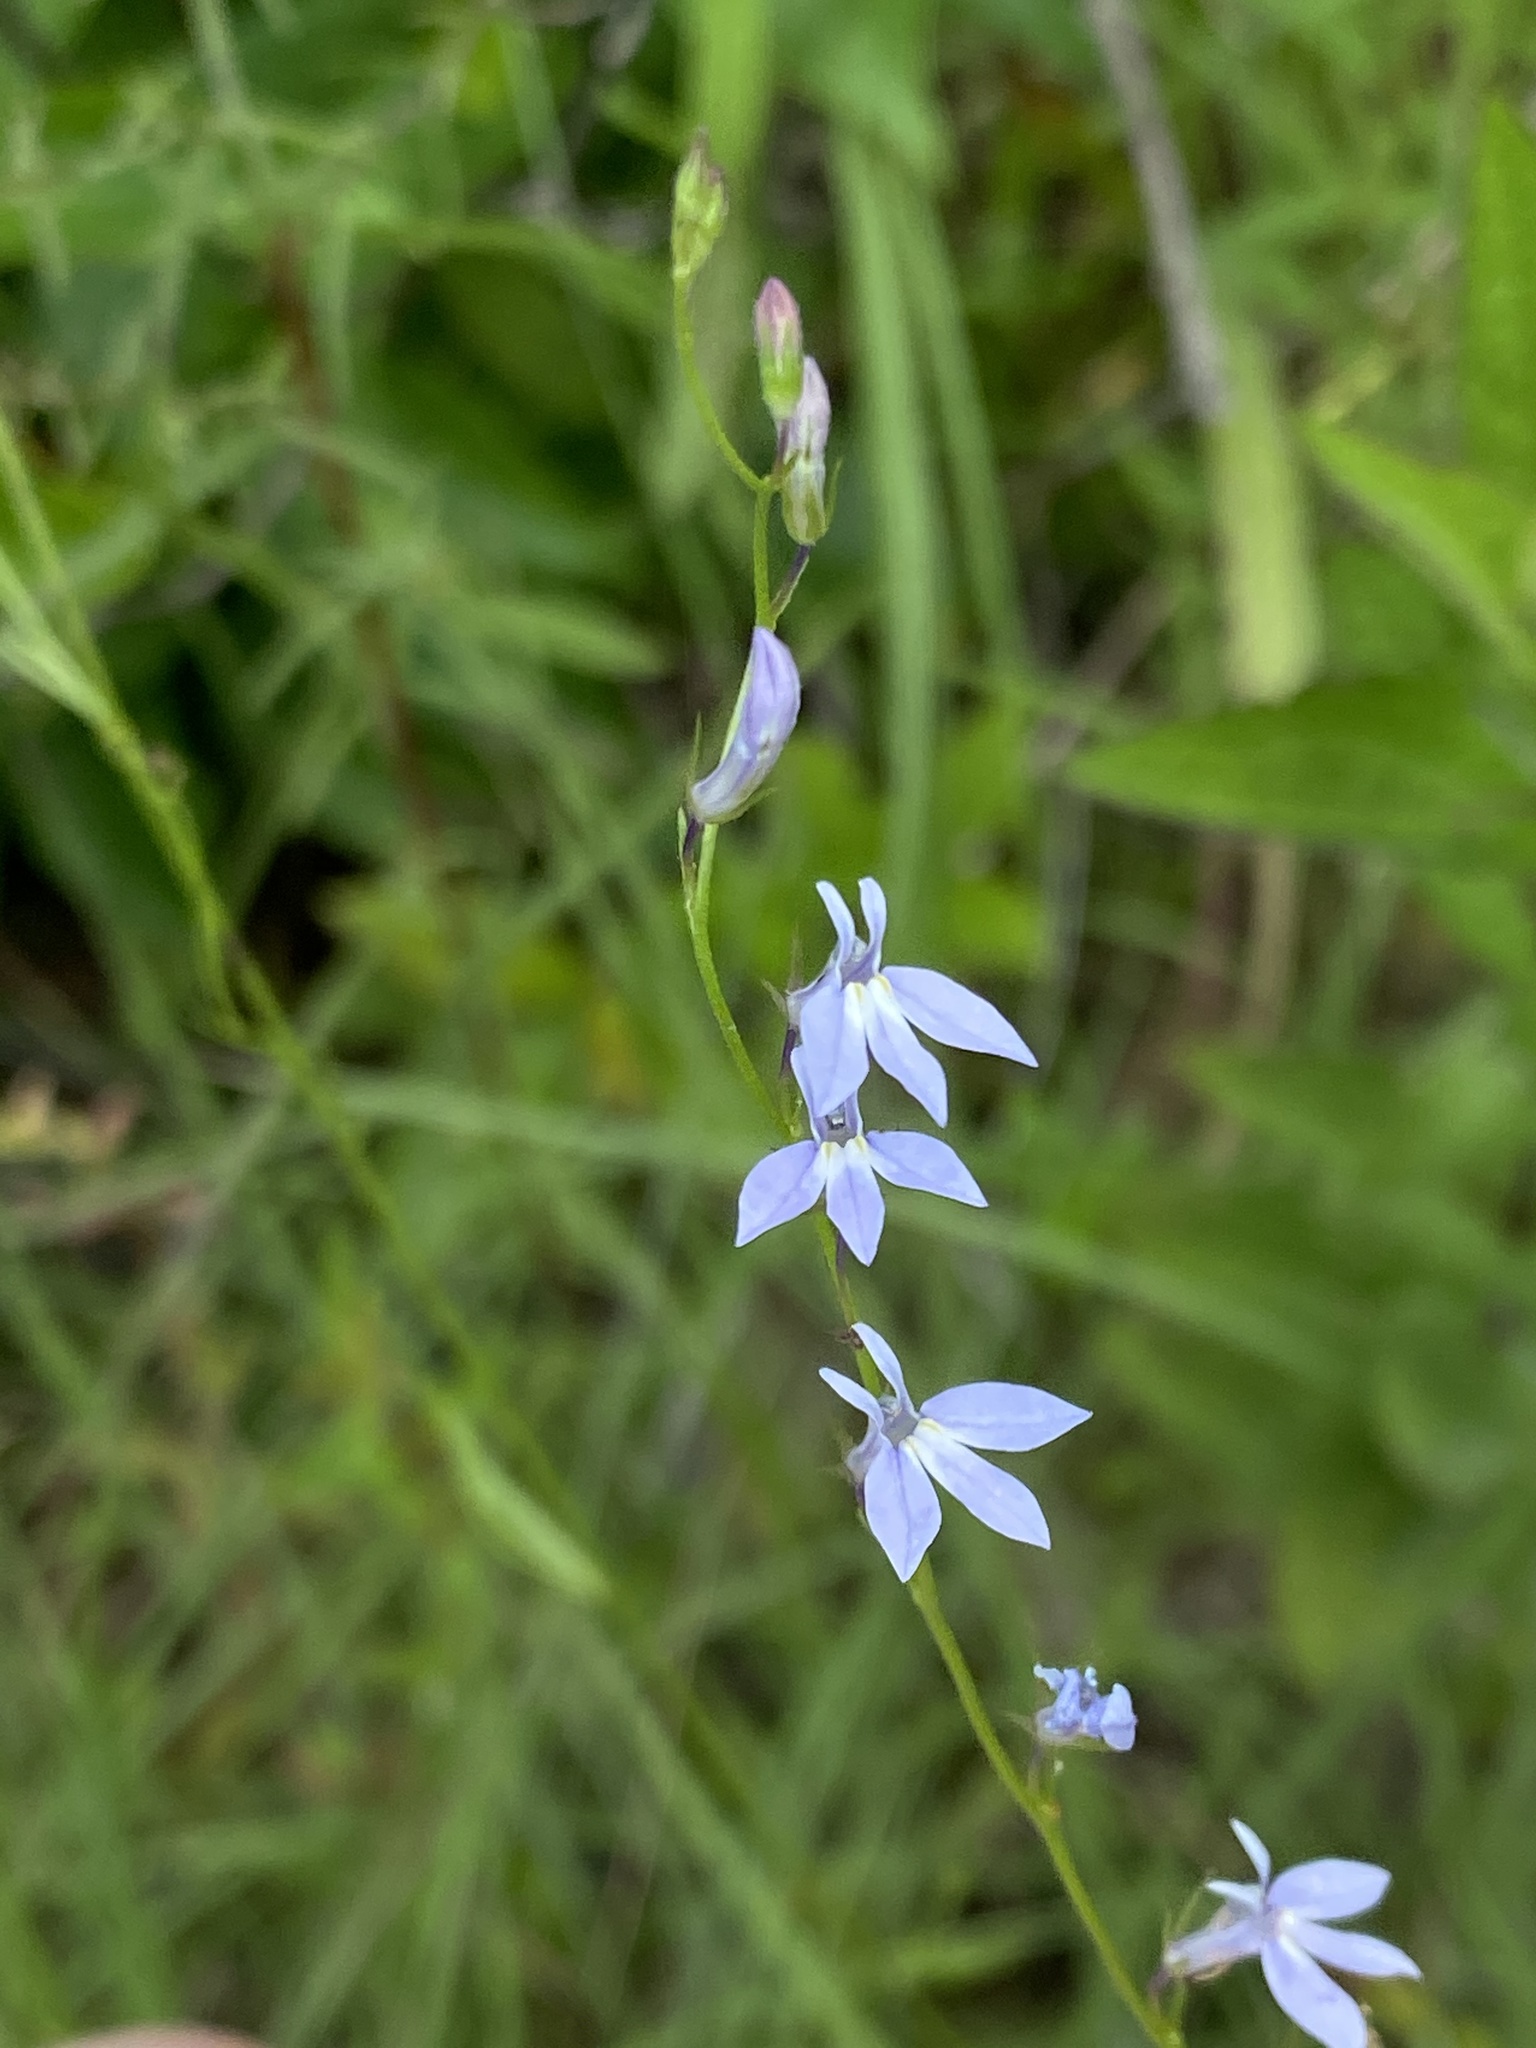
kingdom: Plantae
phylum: Tracheophyta
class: Magnoliopsida
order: Asterales
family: Campanulaceae
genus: Lobelia
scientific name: Lobelia nuttallii
